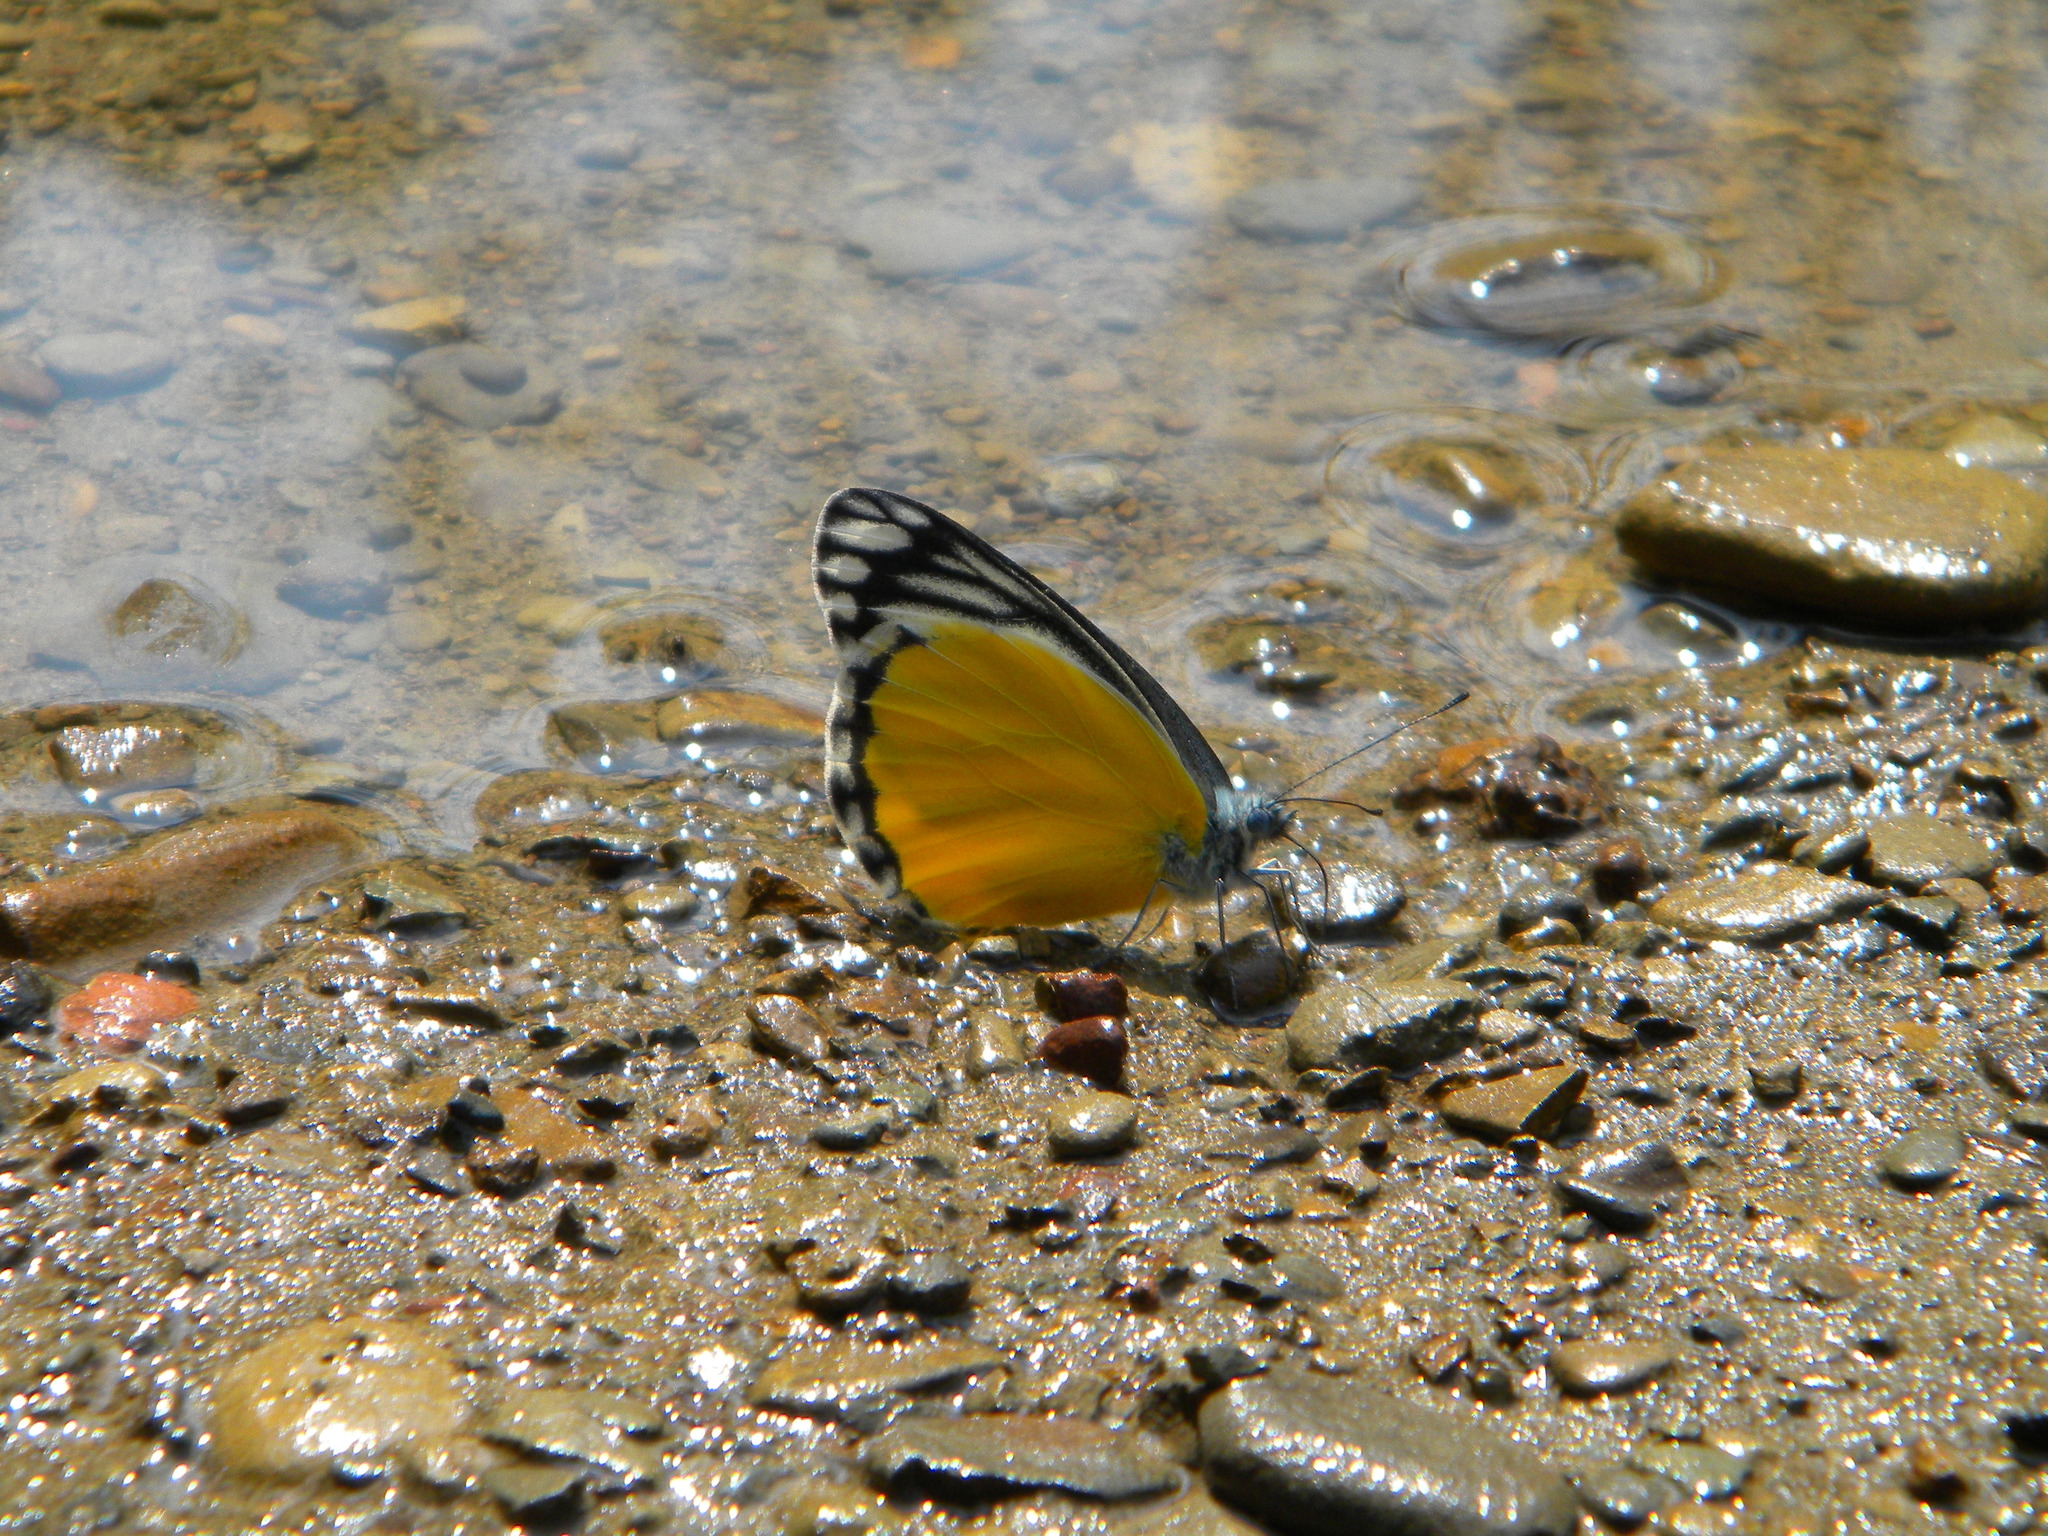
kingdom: Animalia
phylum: Arthropoda
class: Insecta
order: Lepidoptera
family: Pieridae
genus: Delias
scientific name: Delias agostina
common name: Yellow jezebel
